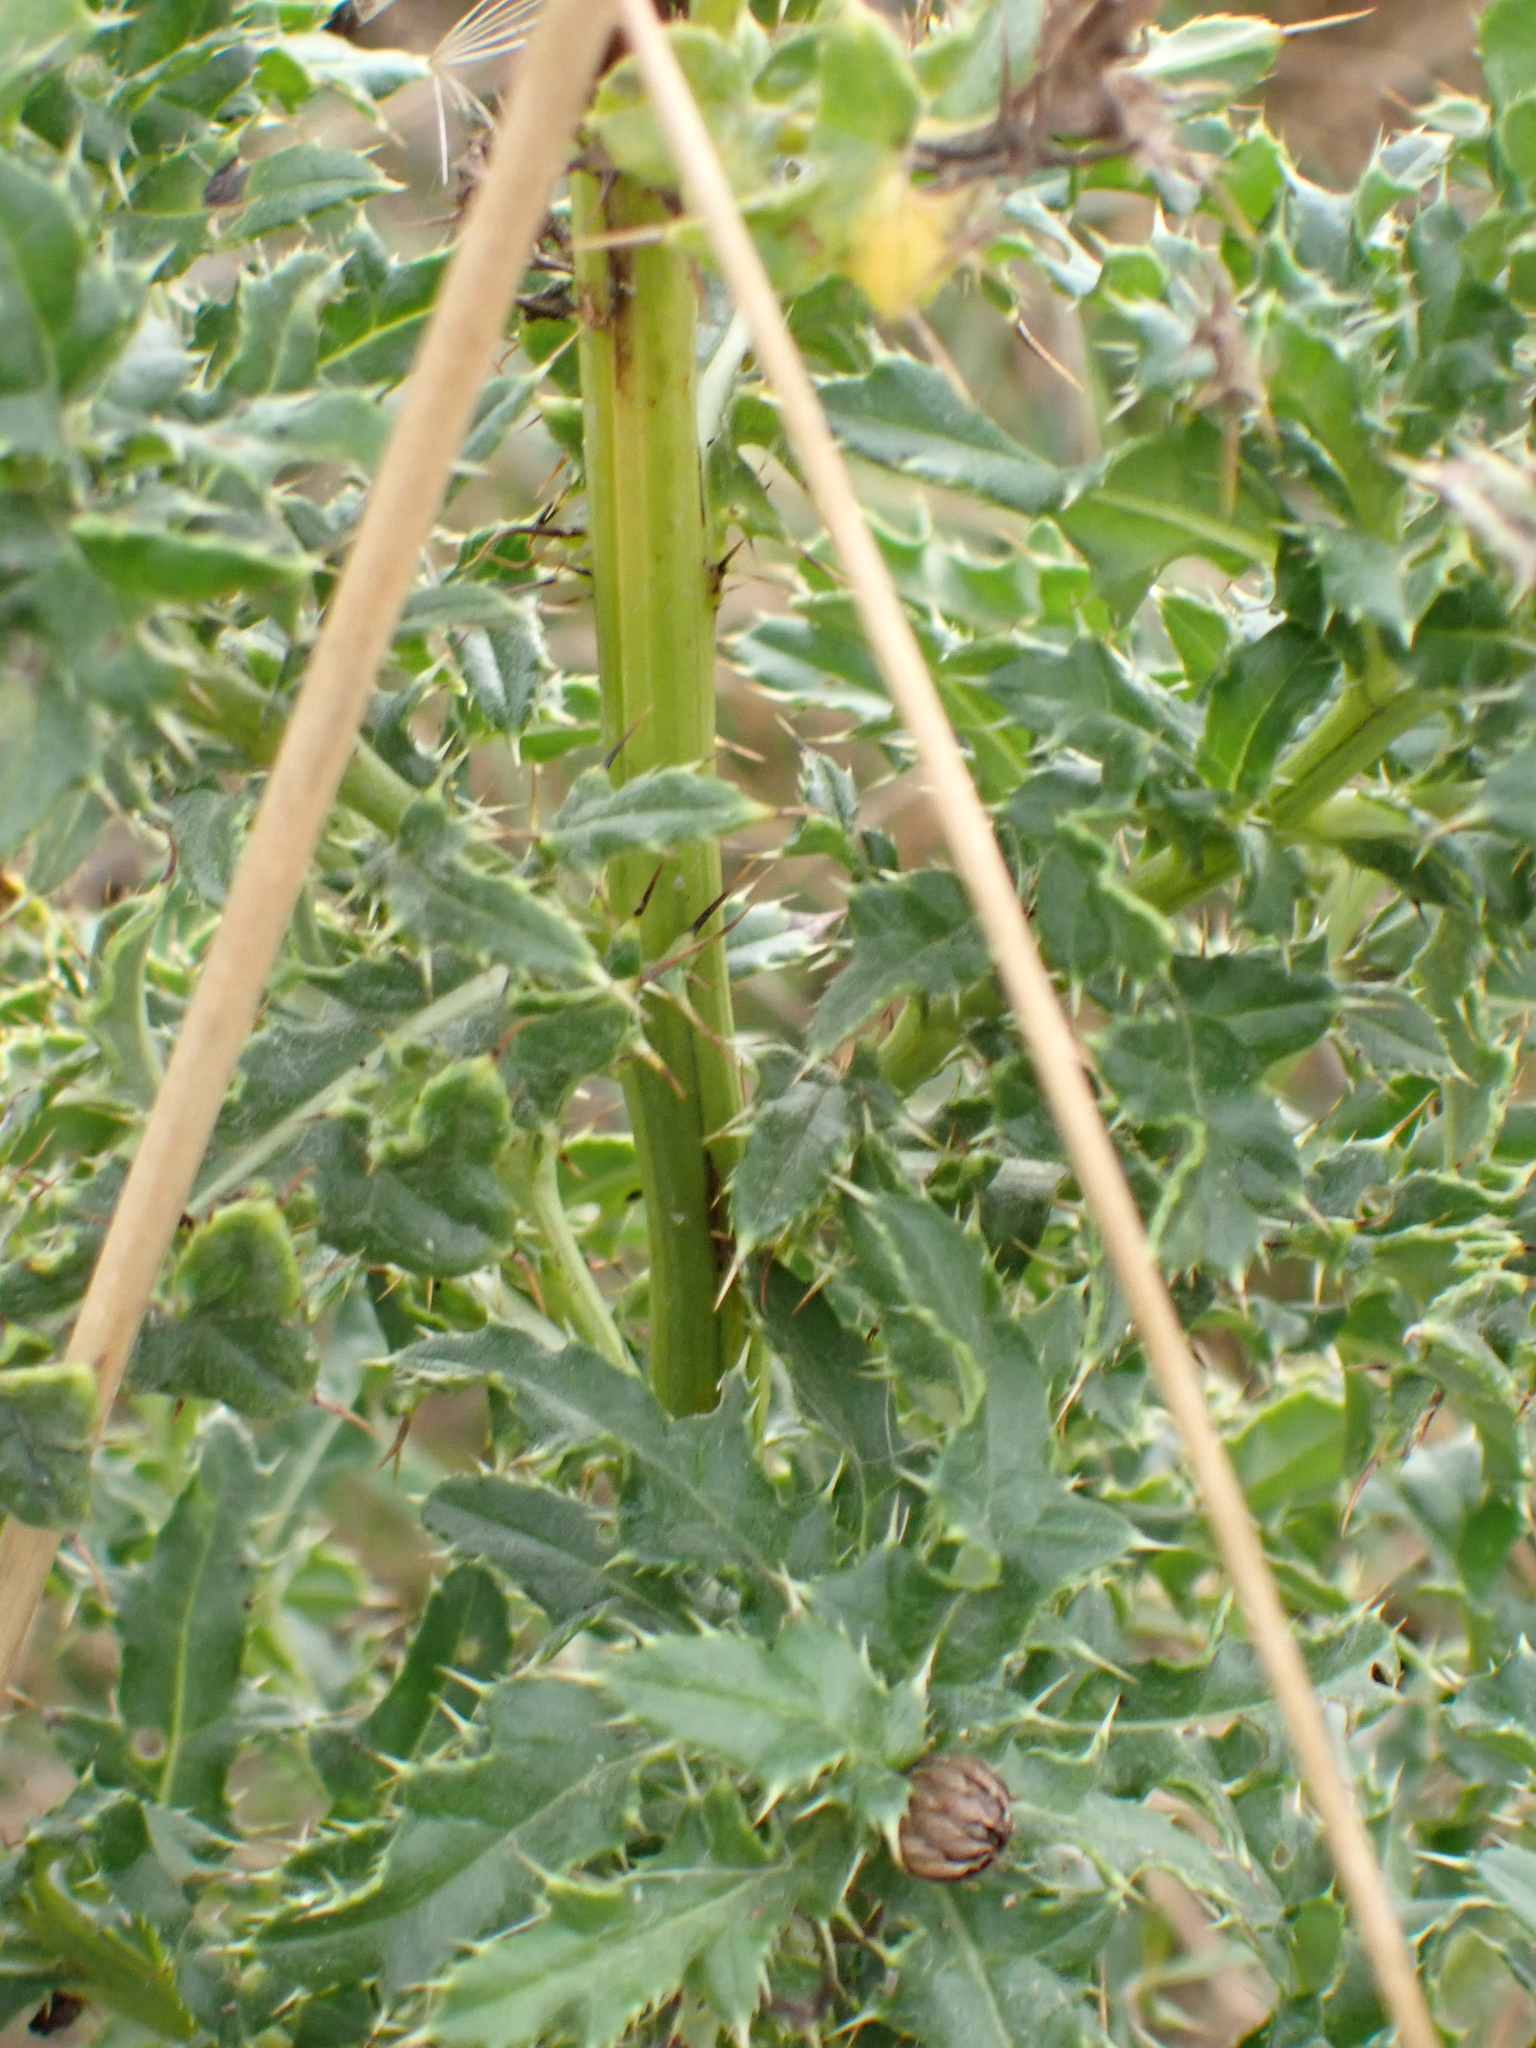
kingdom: Plantae
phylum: Tracheophyta
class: Magnoliopsida
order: Asterales
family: Asteraceae
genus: Cirsium
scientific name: Cirsium arvense
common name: Creeping thistle
